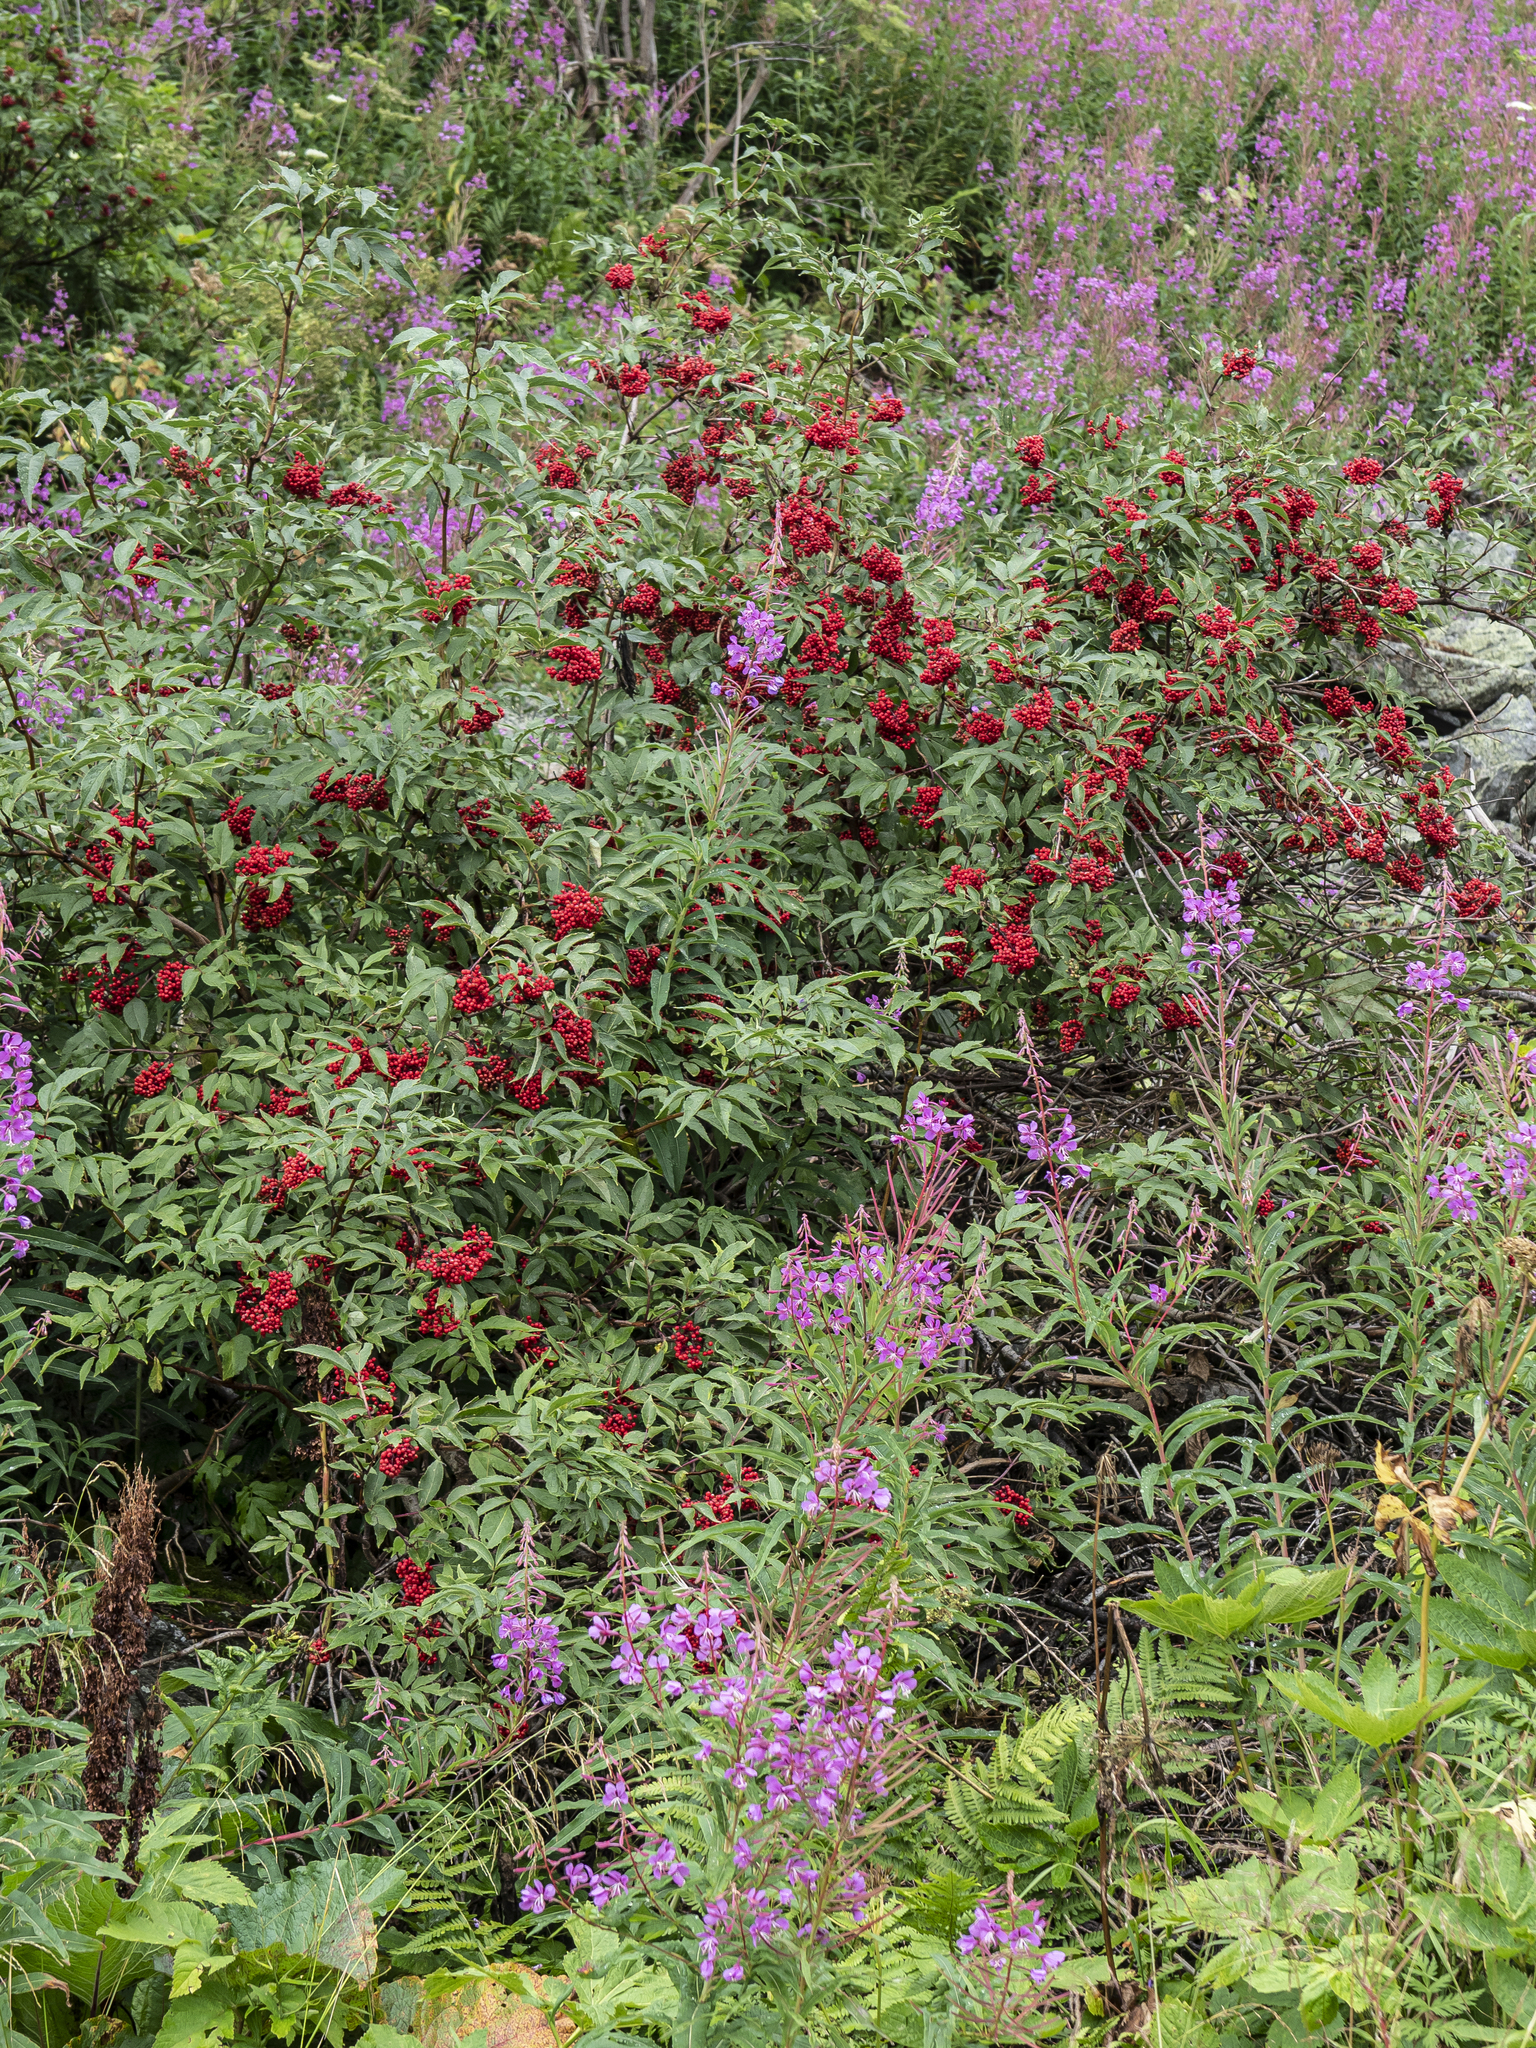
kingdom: Plantae
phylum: Tracheophyta
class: Magnoliopsida
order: Dipsacales
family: Viburnaceae
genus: Sambucus
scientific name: Sambucus racemosa
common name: Red-berried elder
